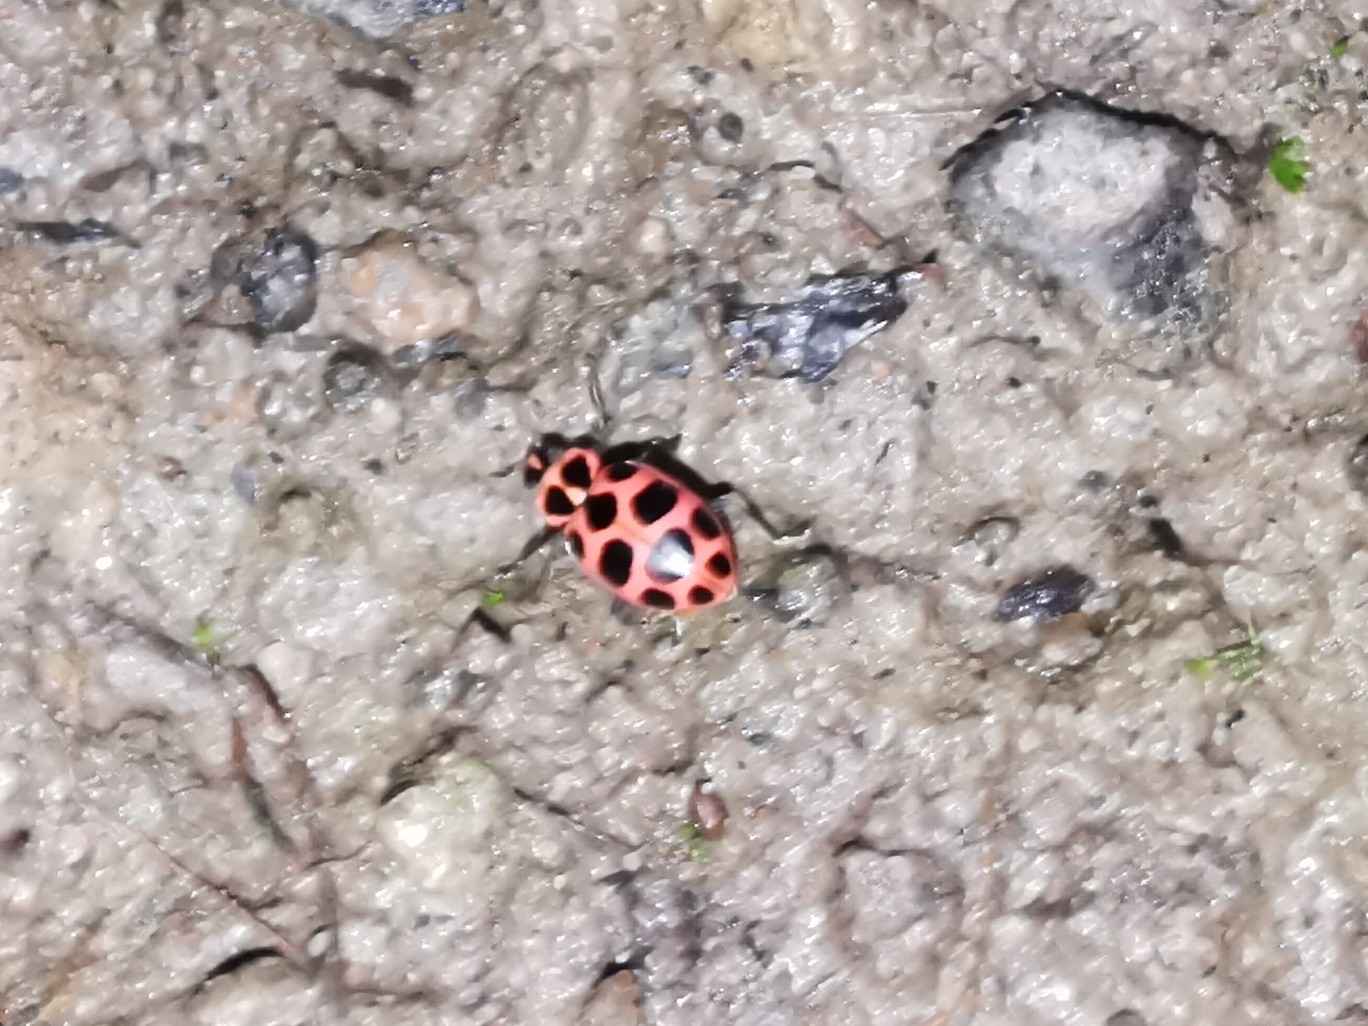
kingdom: Animalia
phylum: Arthropoda
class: Insecta
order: Coleoptera
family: Coccinellidae
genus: Coleomegilla
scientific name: Coleomegilla maculata
